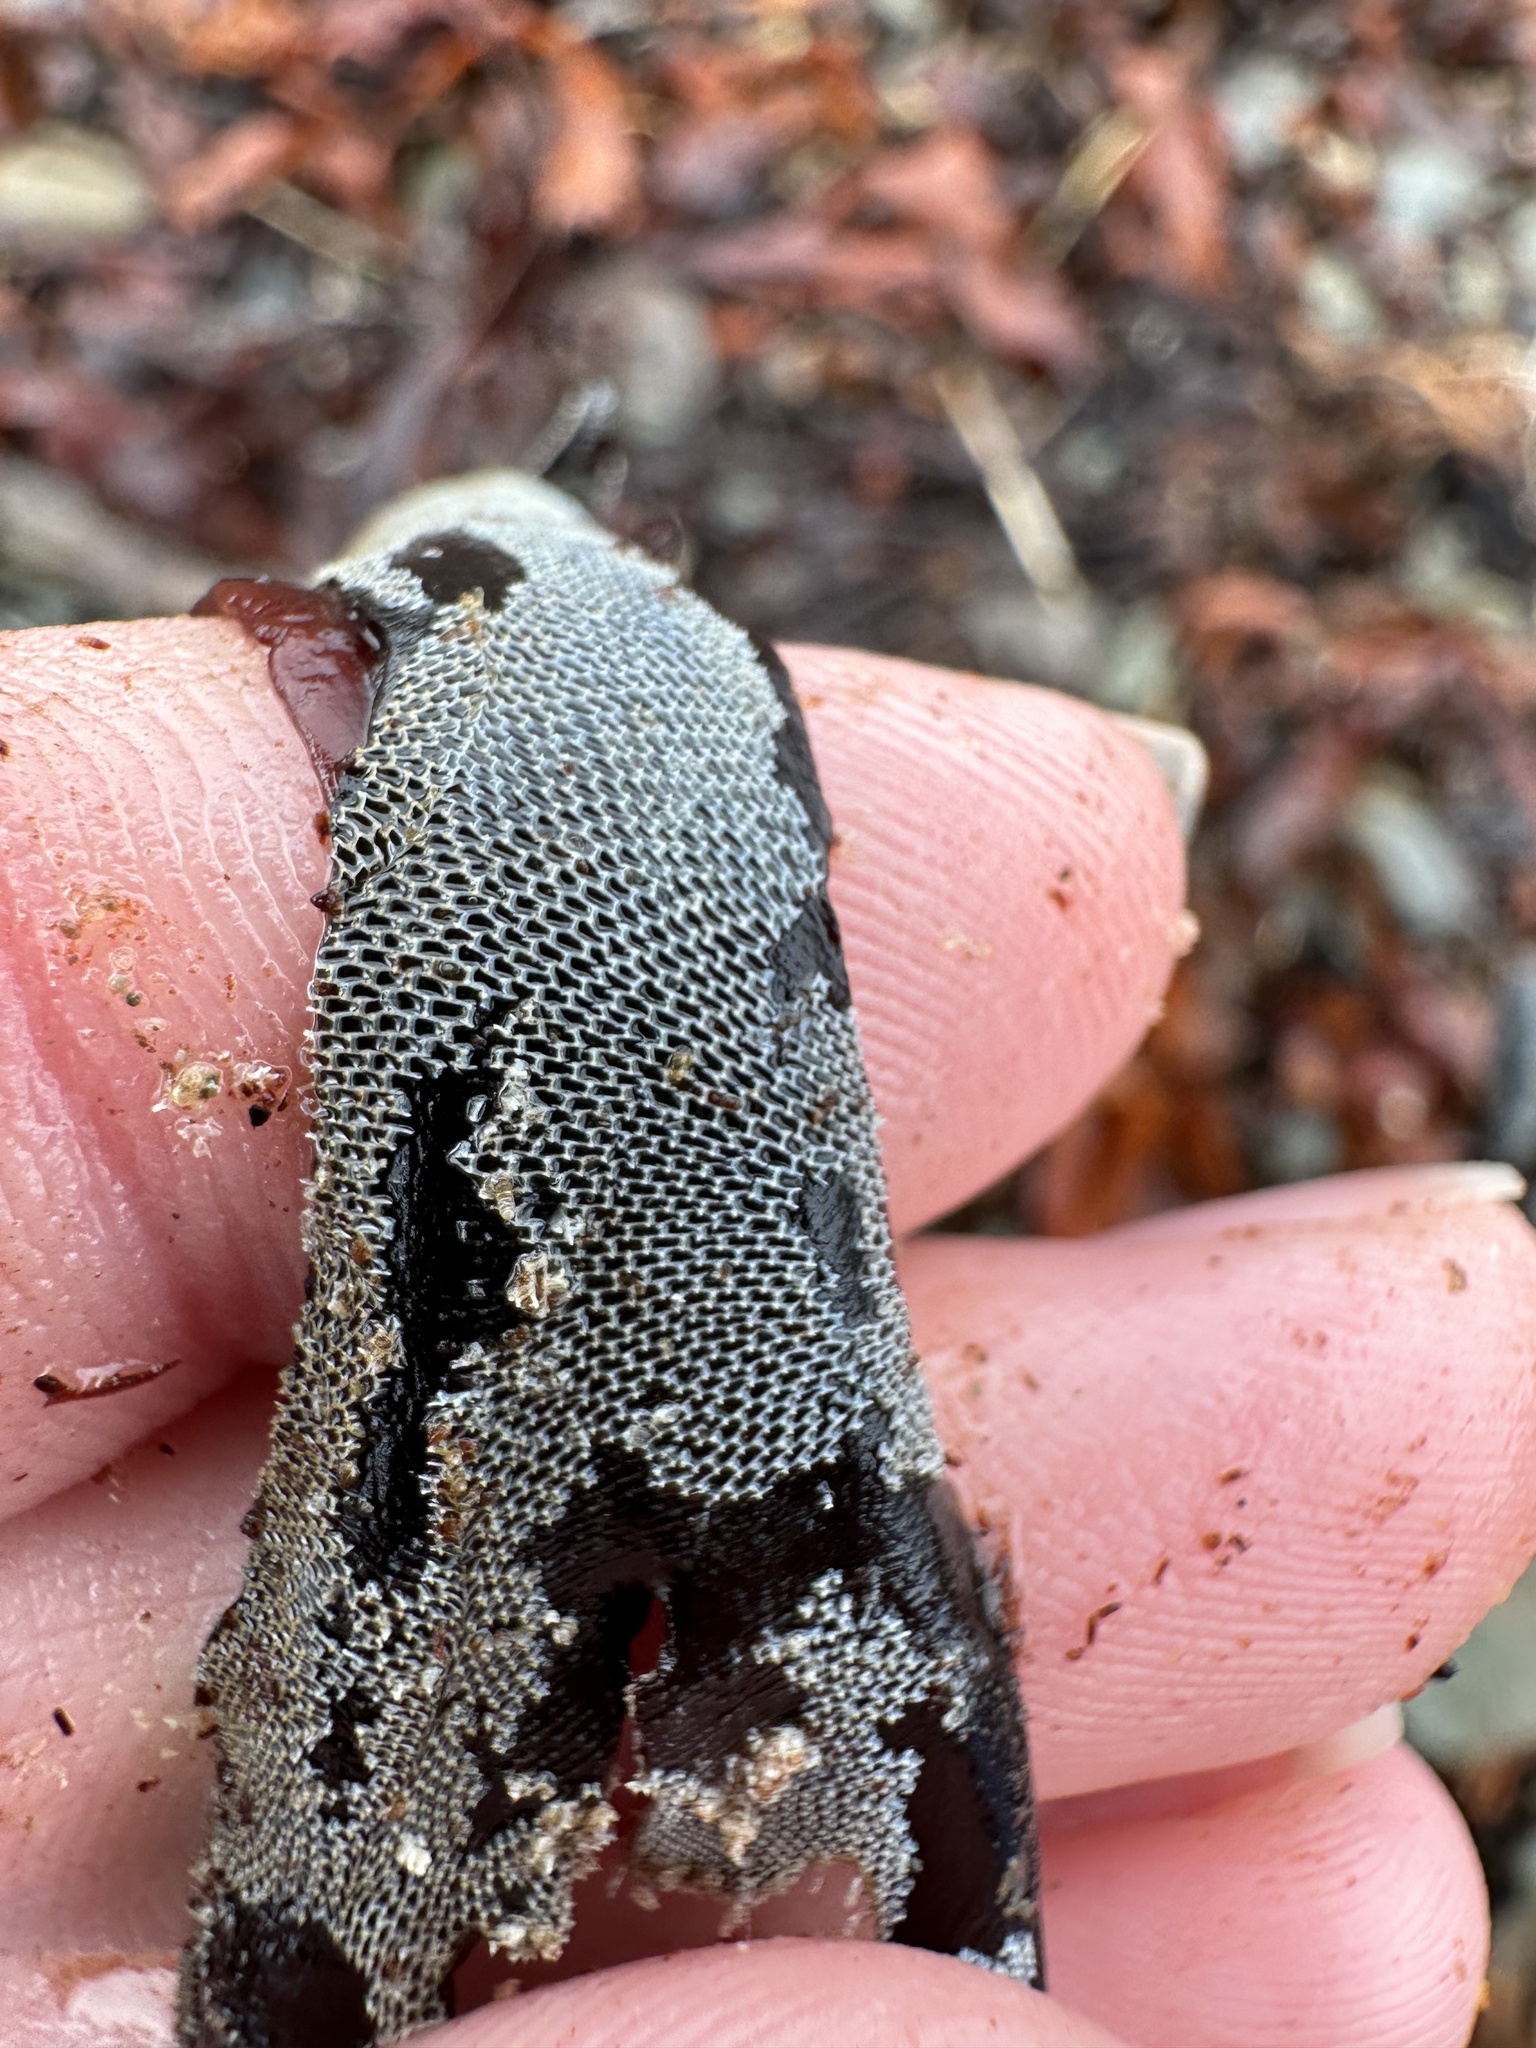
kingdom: Animalia
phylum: Bryozoa
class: Gymnolaemata
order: Cheilostomatida
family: Membraniporidae
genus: Membranipora
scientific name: Membranipora membranacea
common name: Sea mat
